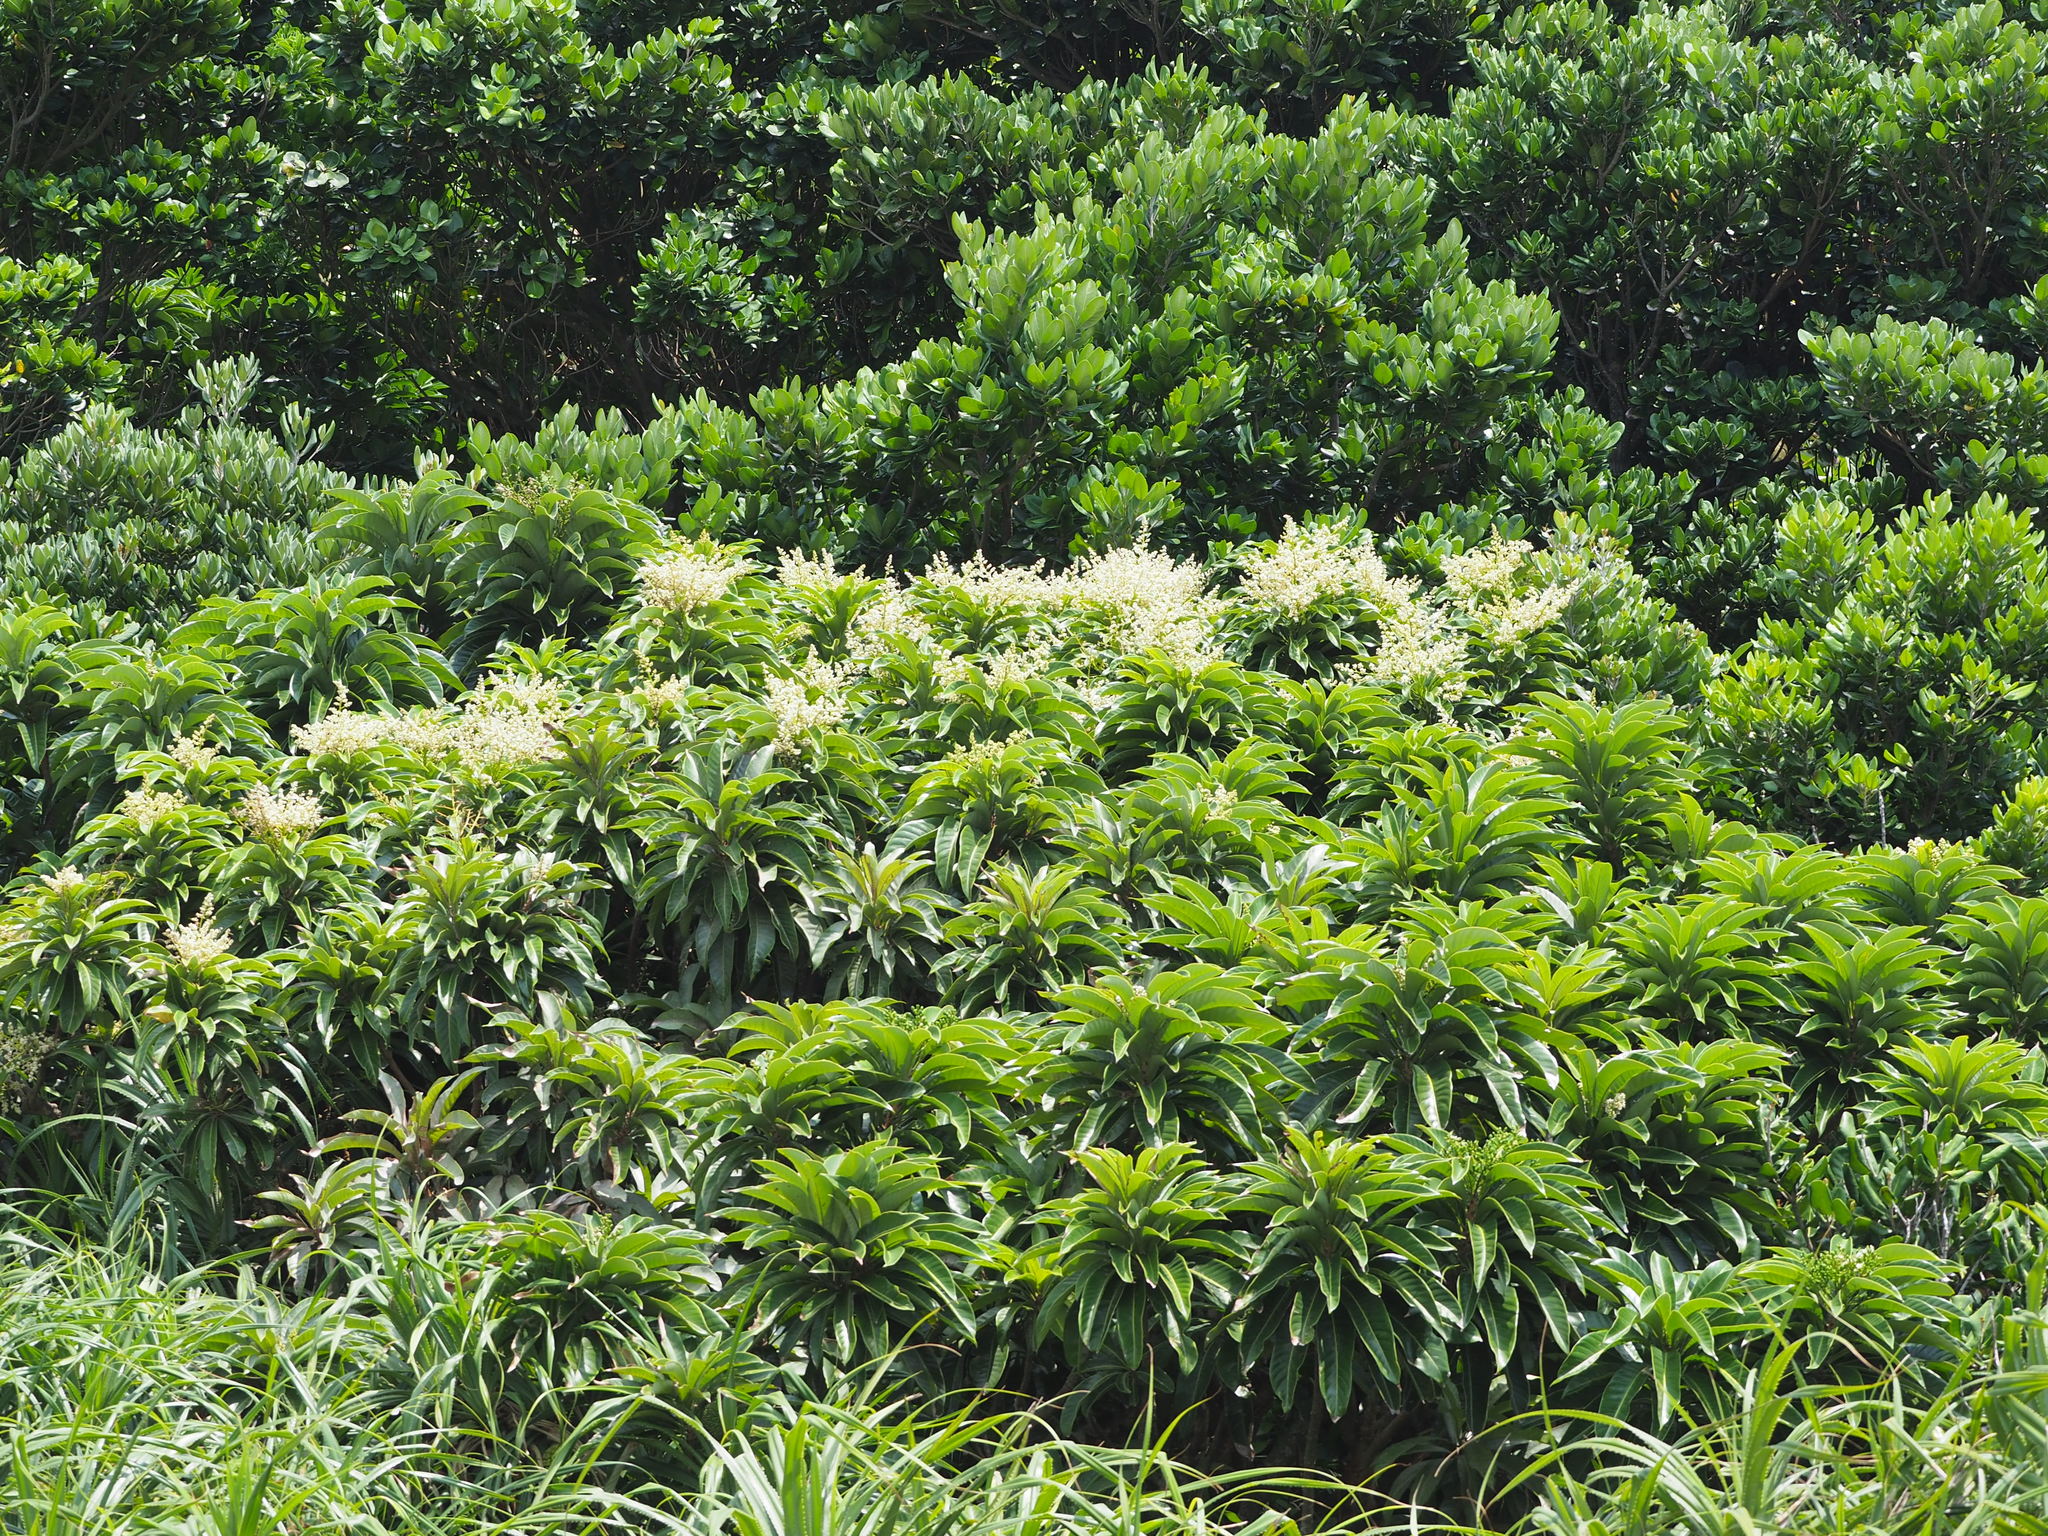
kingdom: Plantae
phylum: Tracheophyta
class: Magnoliopsida
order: Sapindales
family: Anacardiaceae
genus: Semecarpus
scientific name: Semecarpus longifolius
